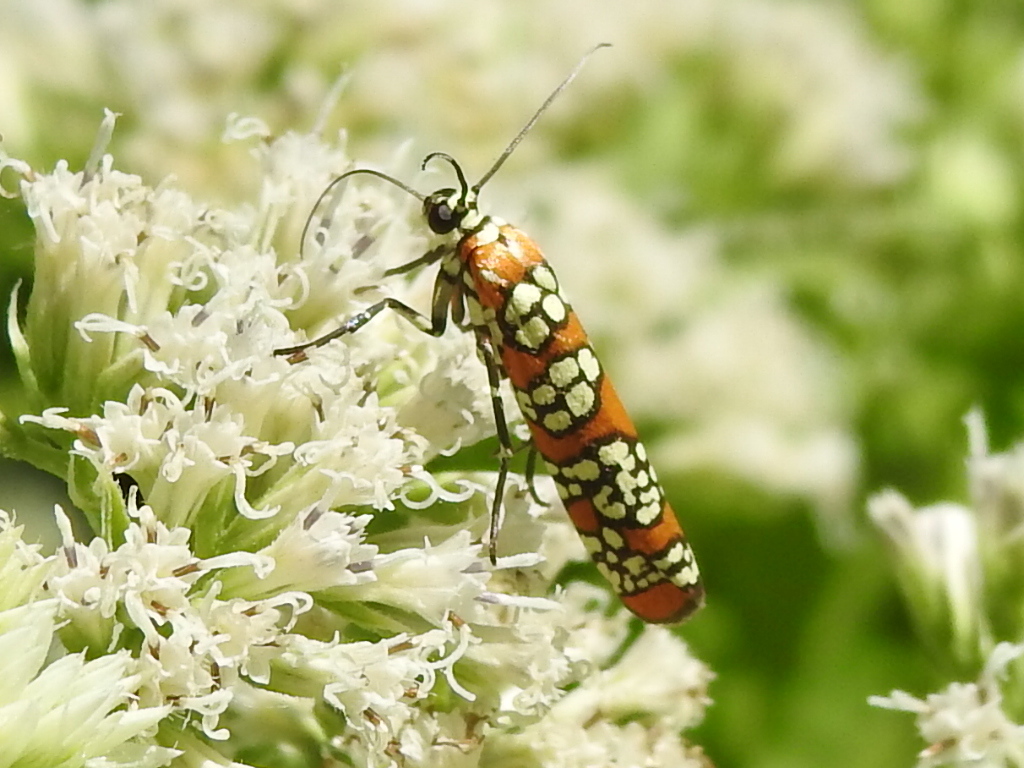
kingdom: Animalia
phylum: Arthropoda
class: Insecta
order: Lepidoptera
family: Attevidae
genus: Atteva
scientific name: Atteva punctella
